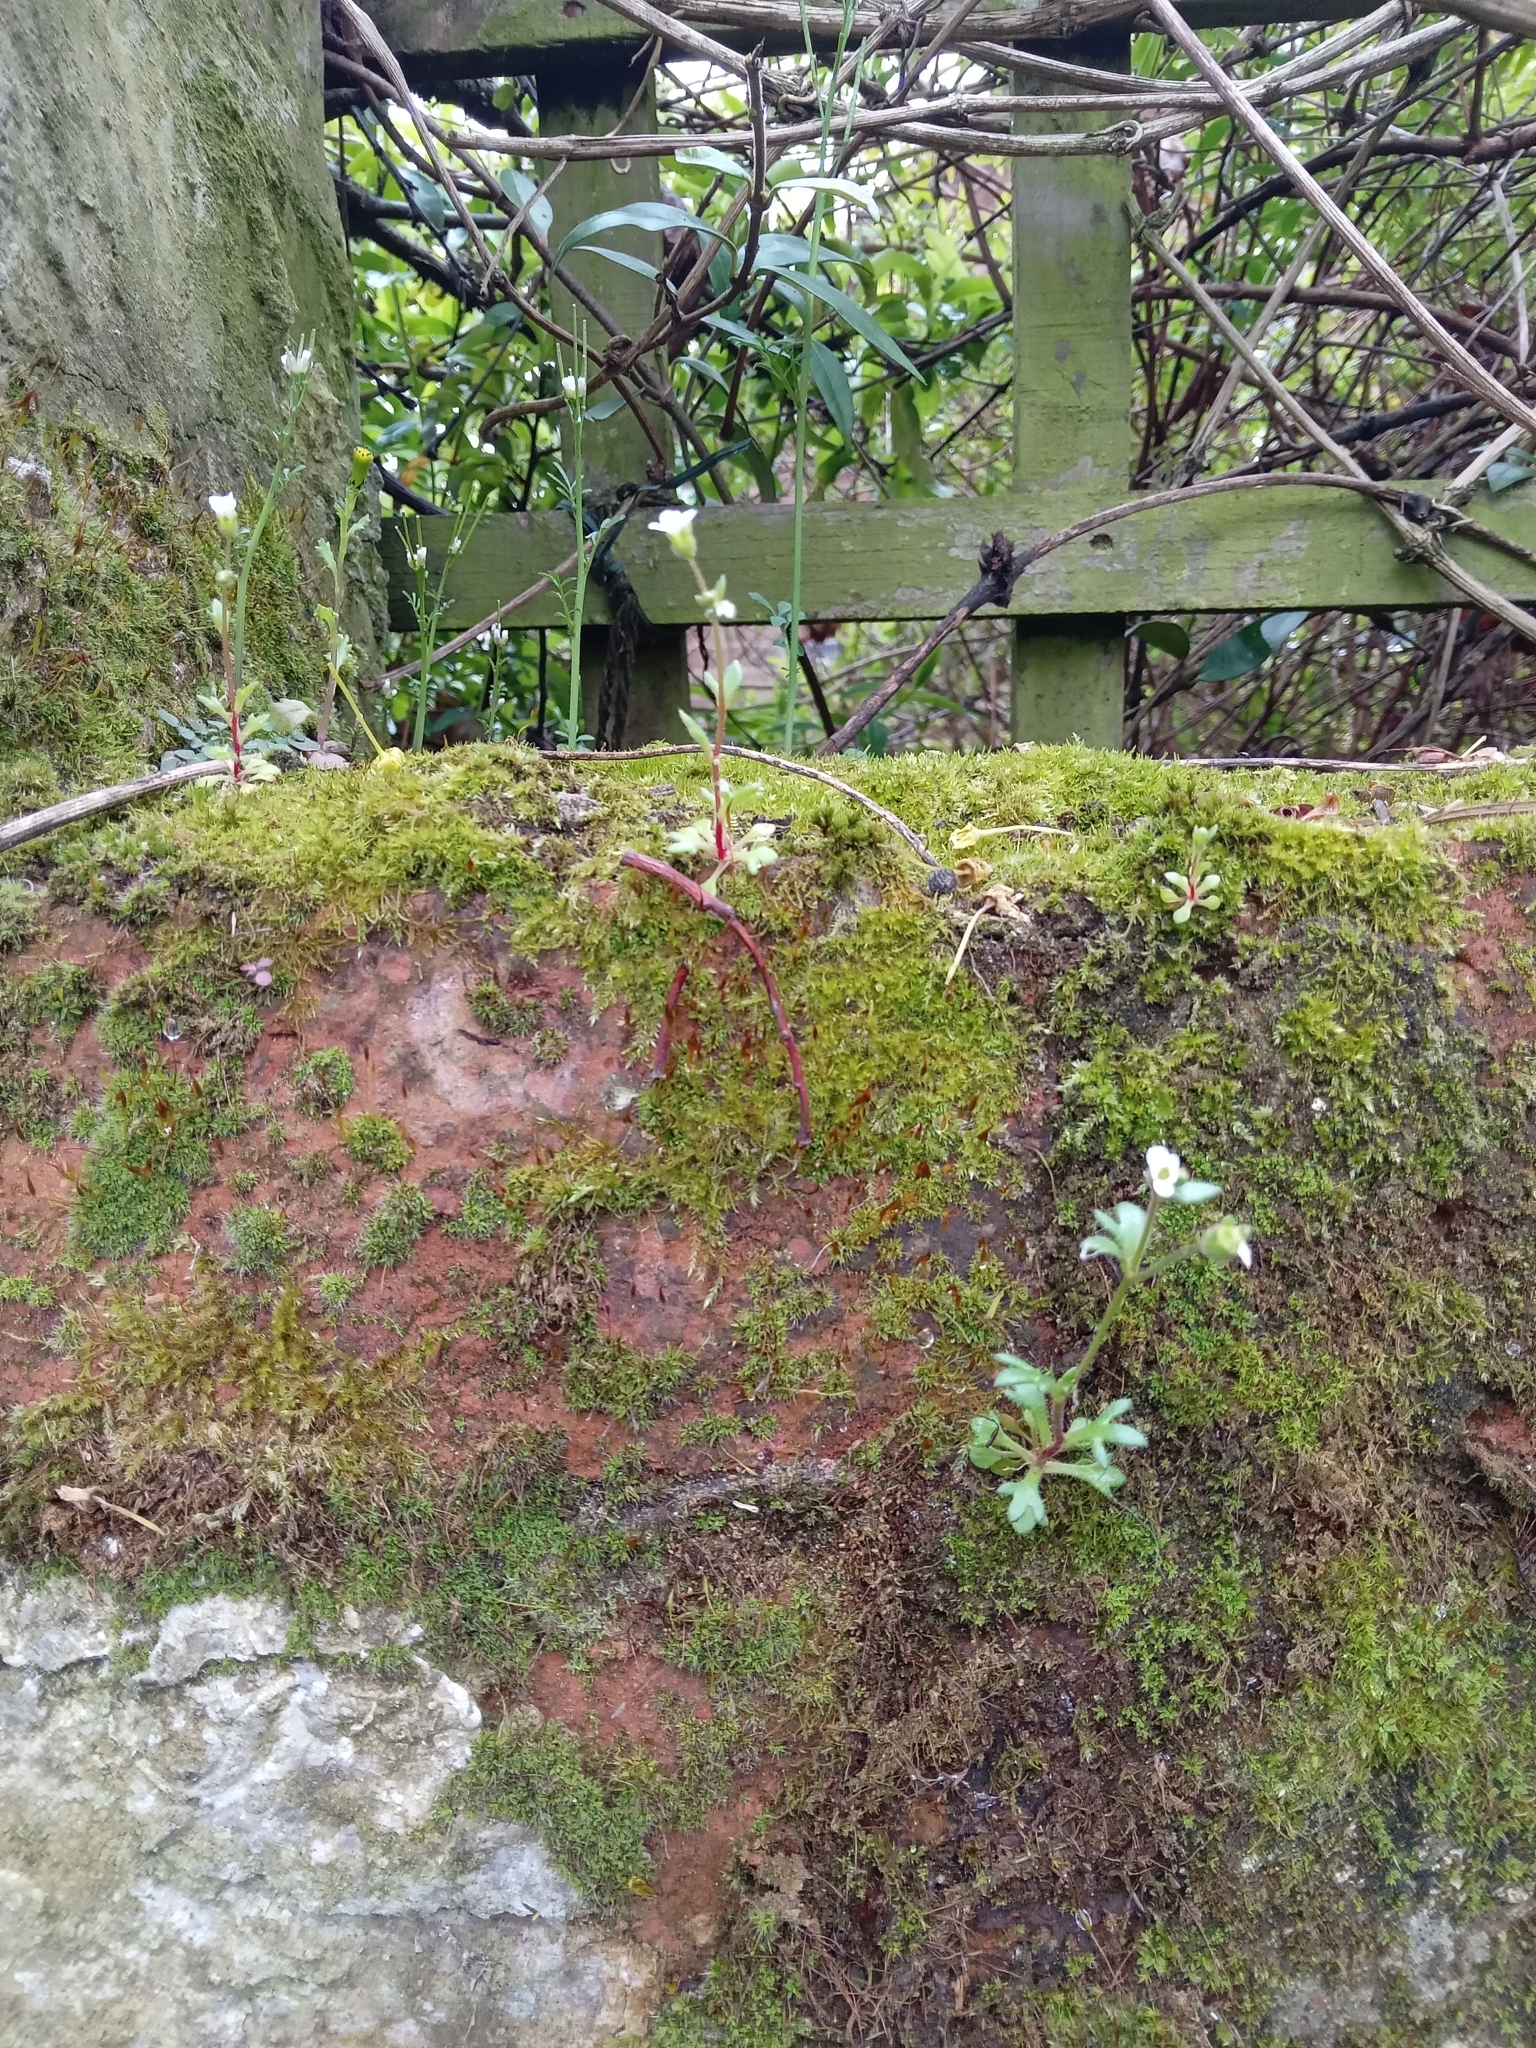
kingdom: Plantae
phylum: Tracheophyta
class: Magnoliopsida
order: Saxifragales
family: Saxifragaceae
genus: Saxifraga
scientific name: Saxifraga tridactylites
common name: Rue-leaved saxifrage
